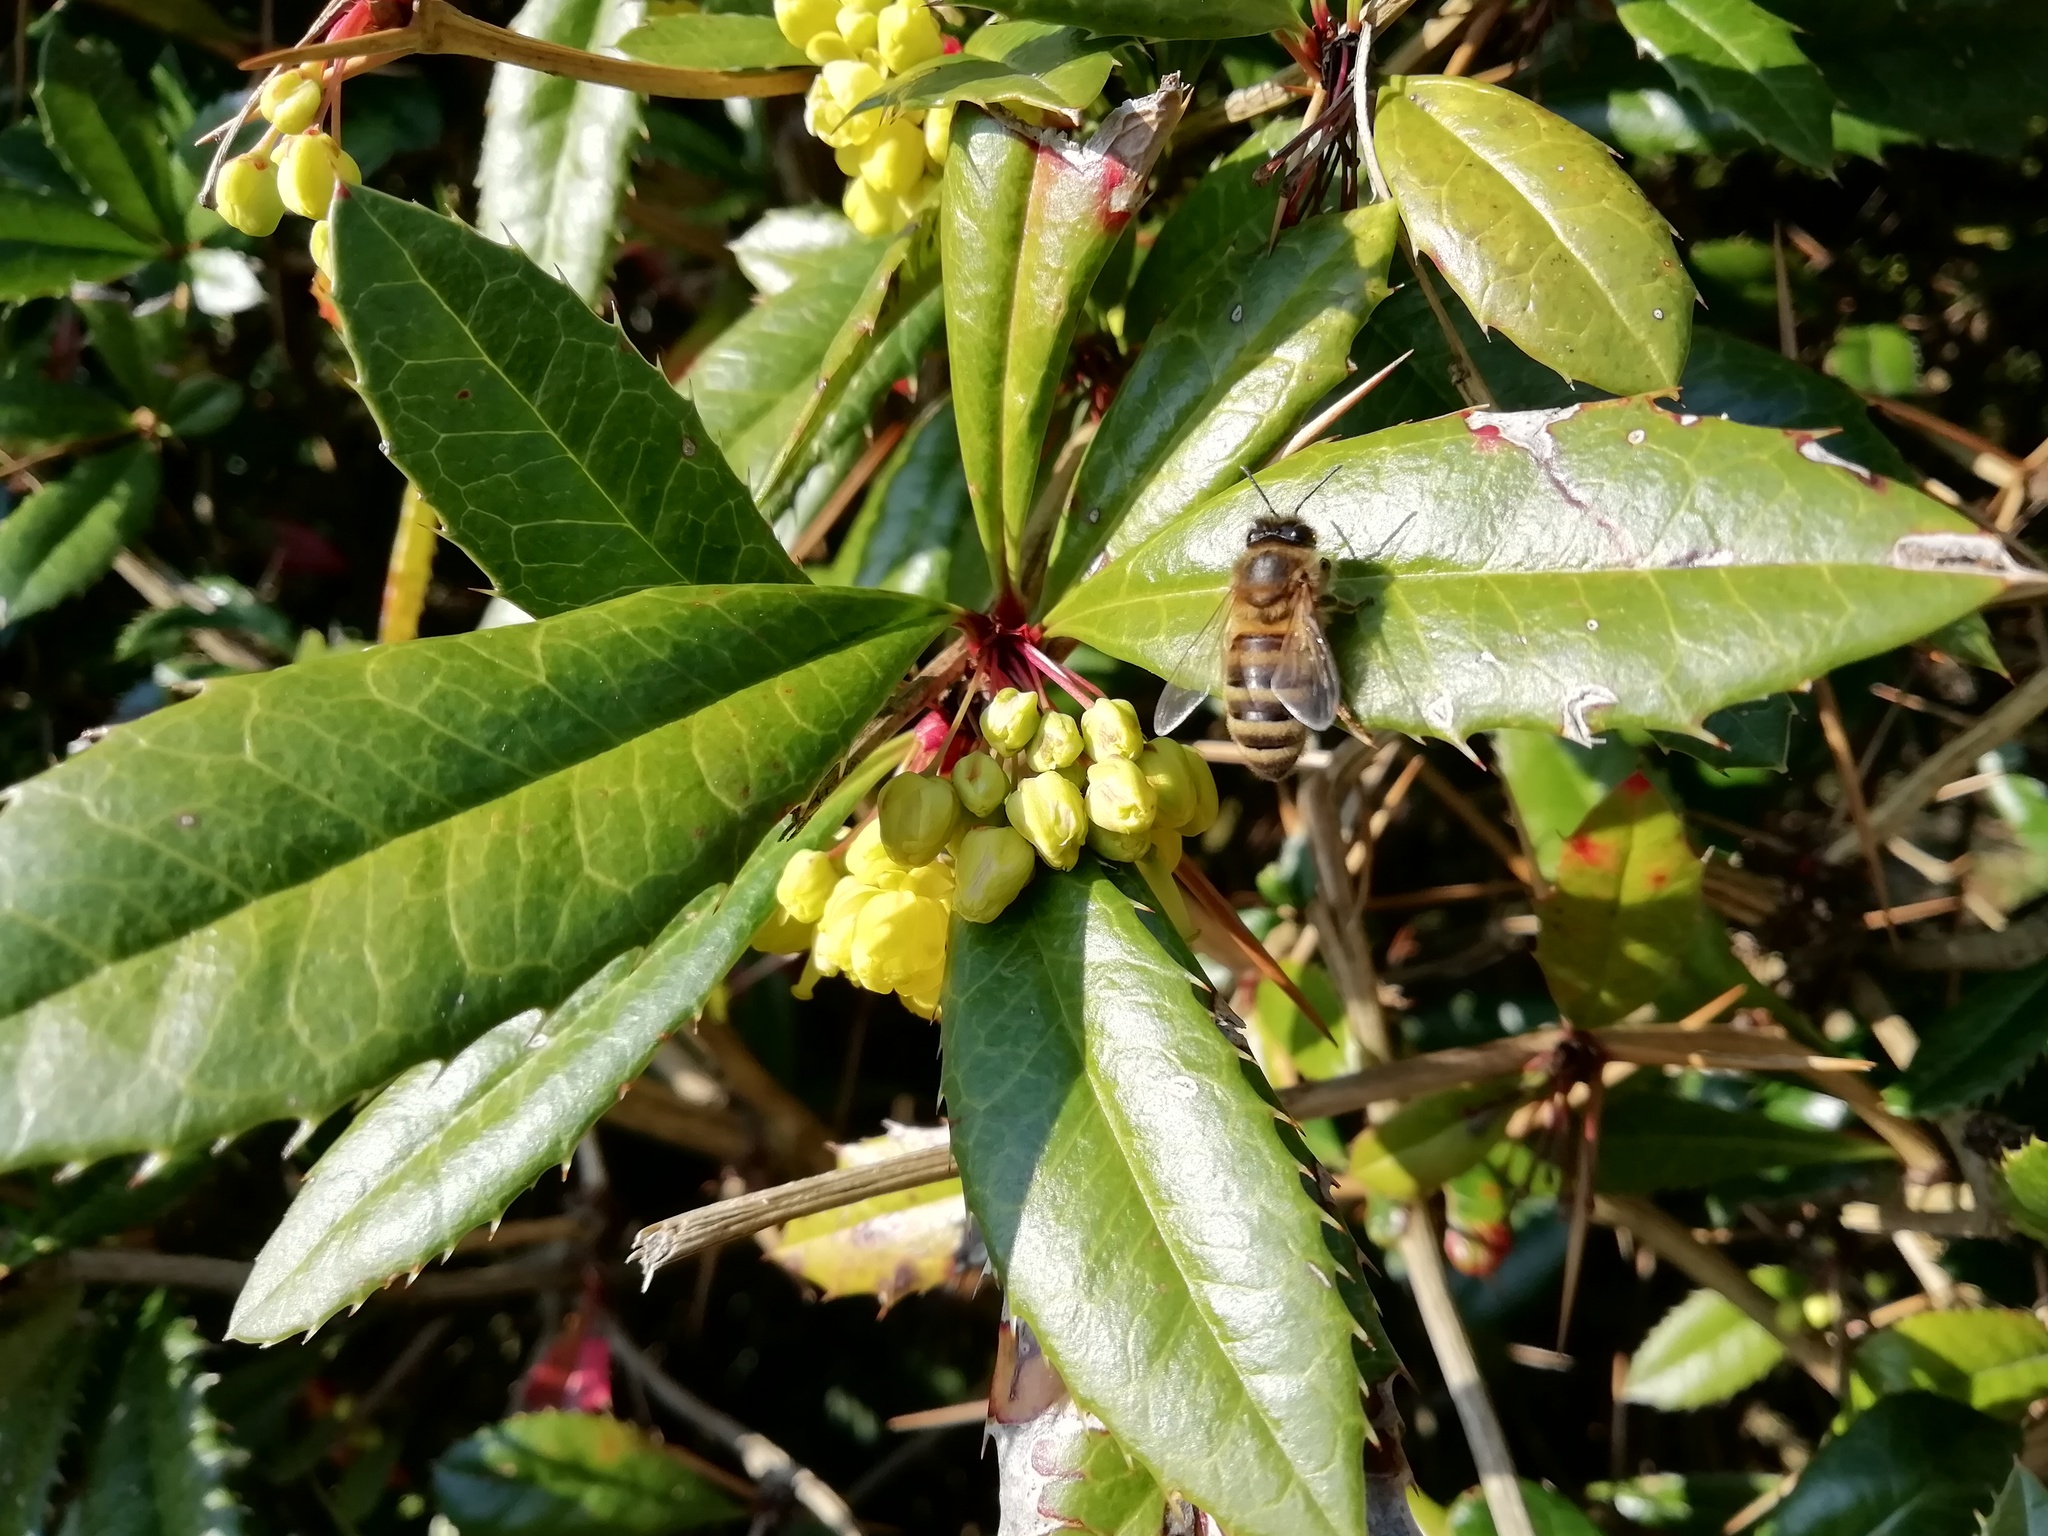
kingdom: Animalia
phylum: Arthropoda
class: Insecta
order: Hymenoptera
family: Apidae
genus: Apis
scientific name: Apis mellifera
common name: Honey bee
